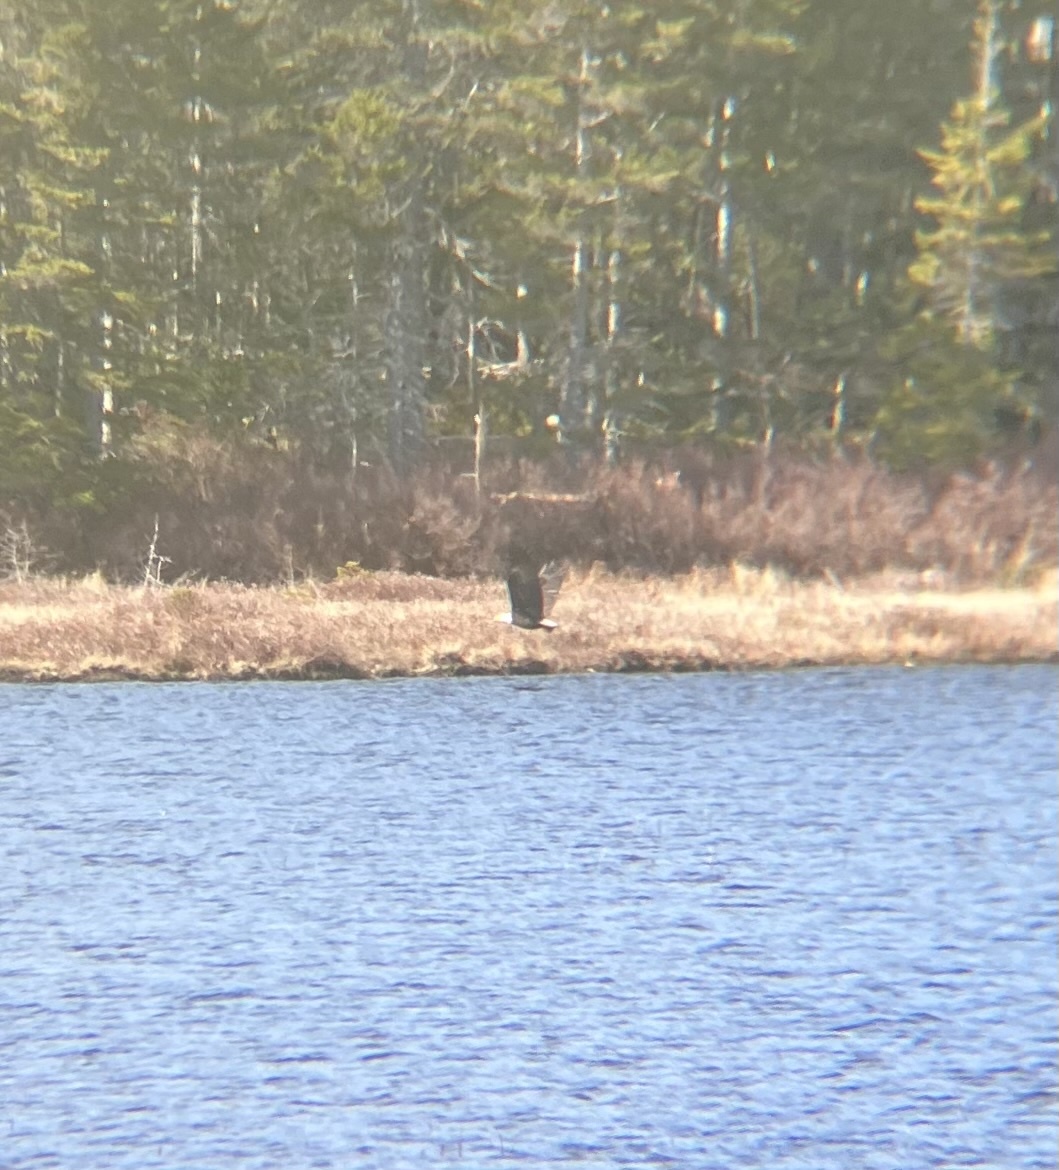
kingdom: Animalia
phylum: Chordata
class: Aves
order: Accipitriformes
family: Accipitridae
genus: Haliaeetus
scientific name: Haliaeetus leucocephalus
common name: Bald eagle
